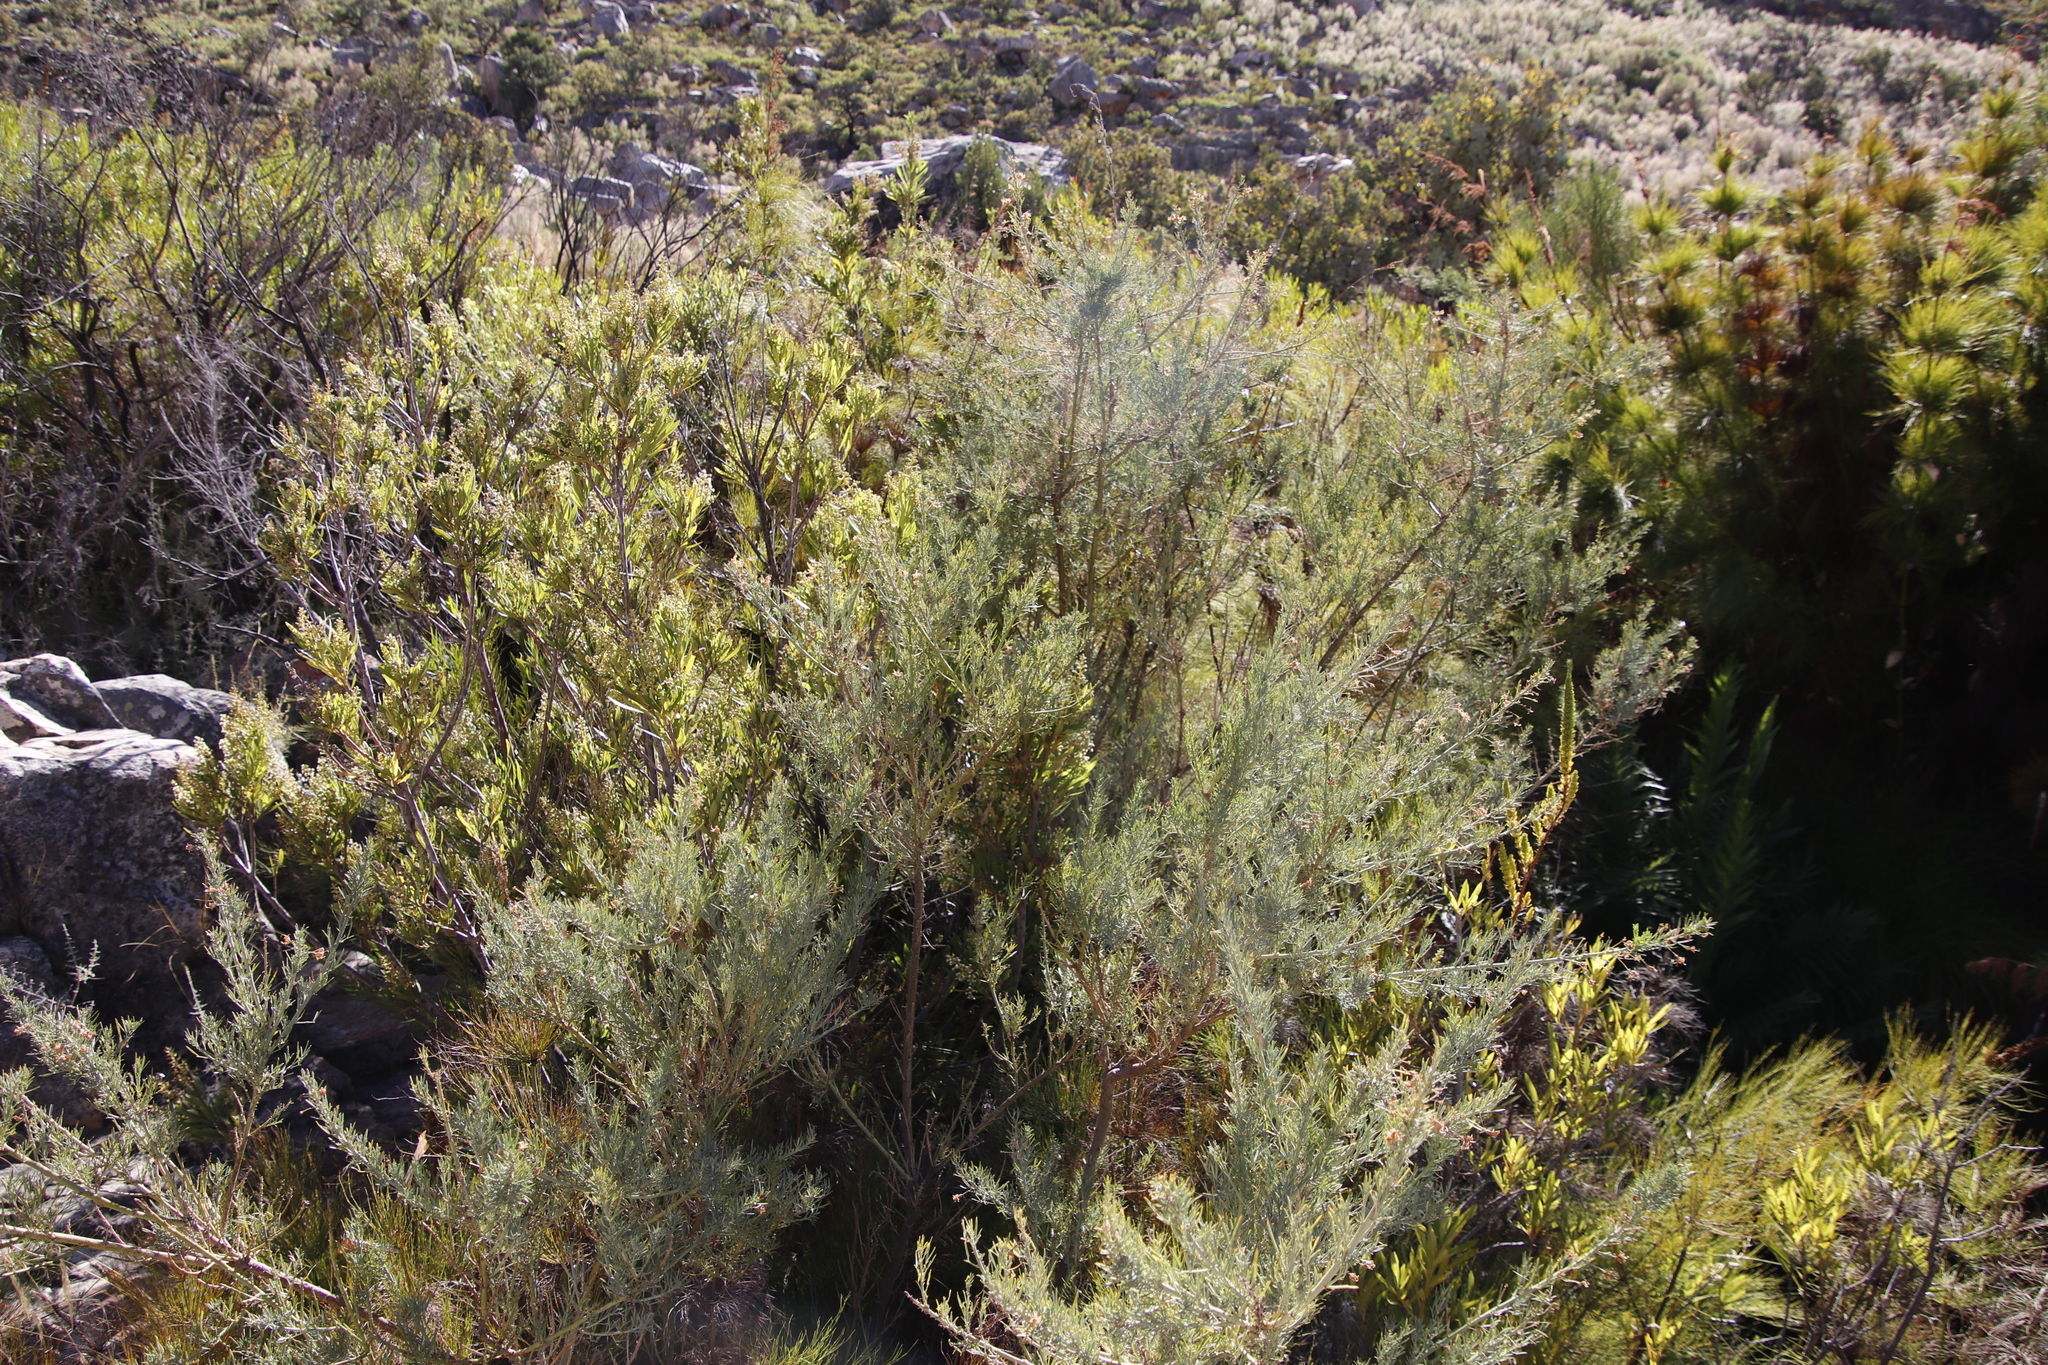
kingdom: Plantae
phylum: Tracheophyta
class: Magnoliopsida
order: Fabales
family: Fabaceae
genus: Psoralea
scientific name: Psoralea verrucosa
